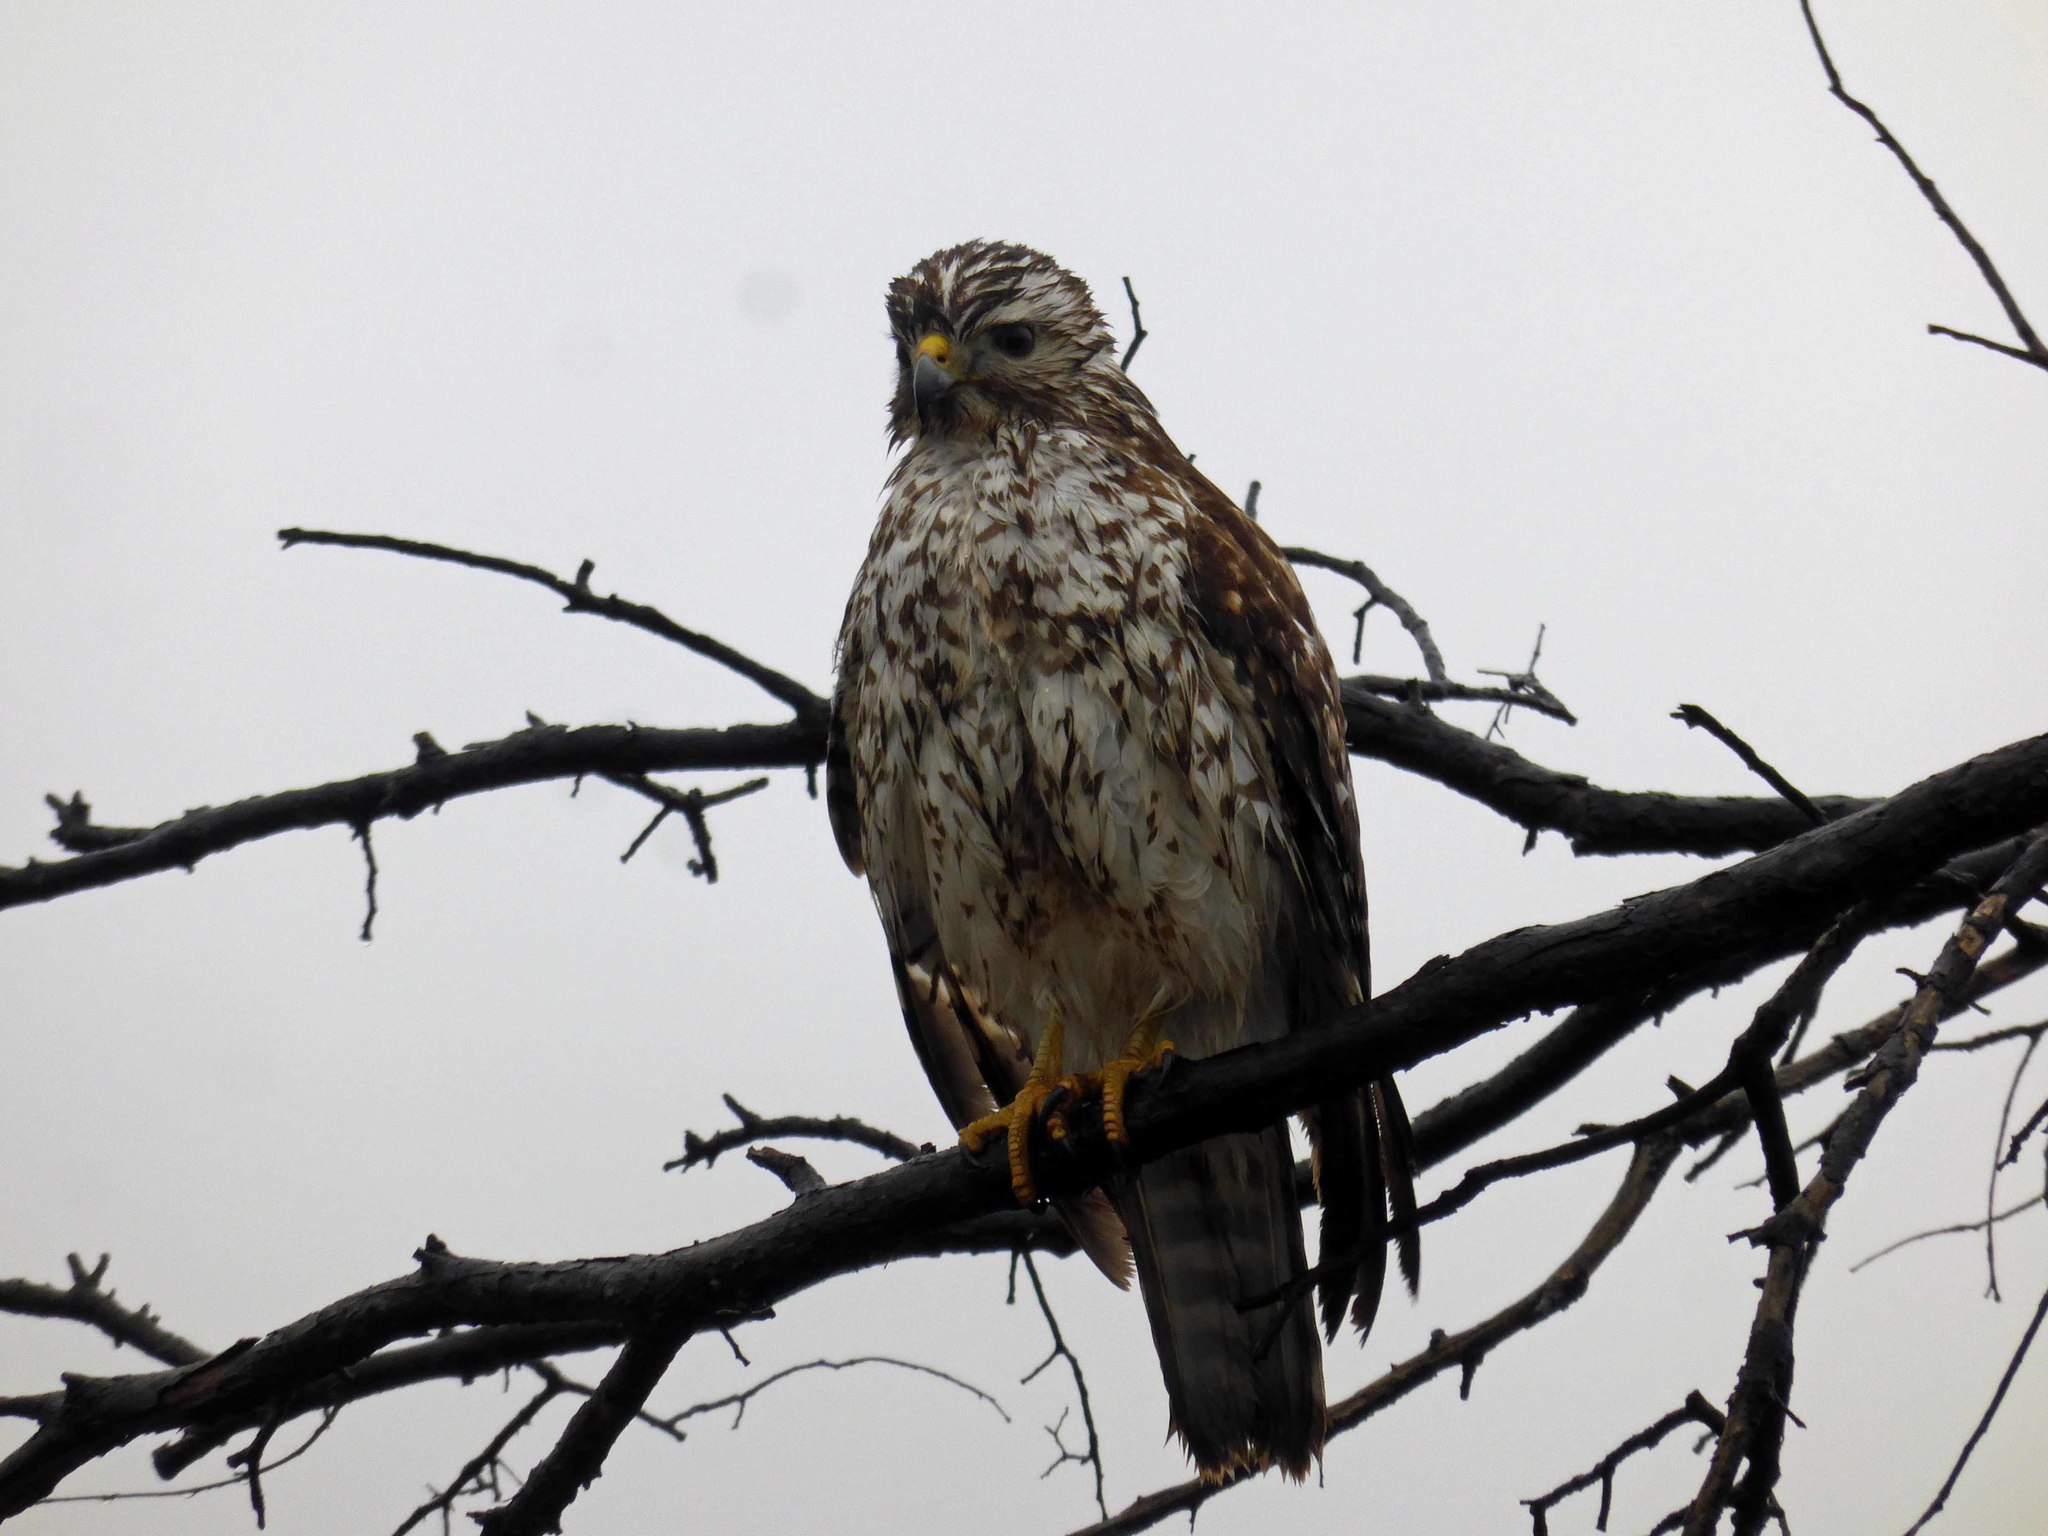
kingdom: Animalia
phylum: Chordata
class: Aves
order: Accipitriformes
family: Accipitridae
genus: Buteo
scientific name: Buteo lineatus
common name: Red-shouldered hawk
